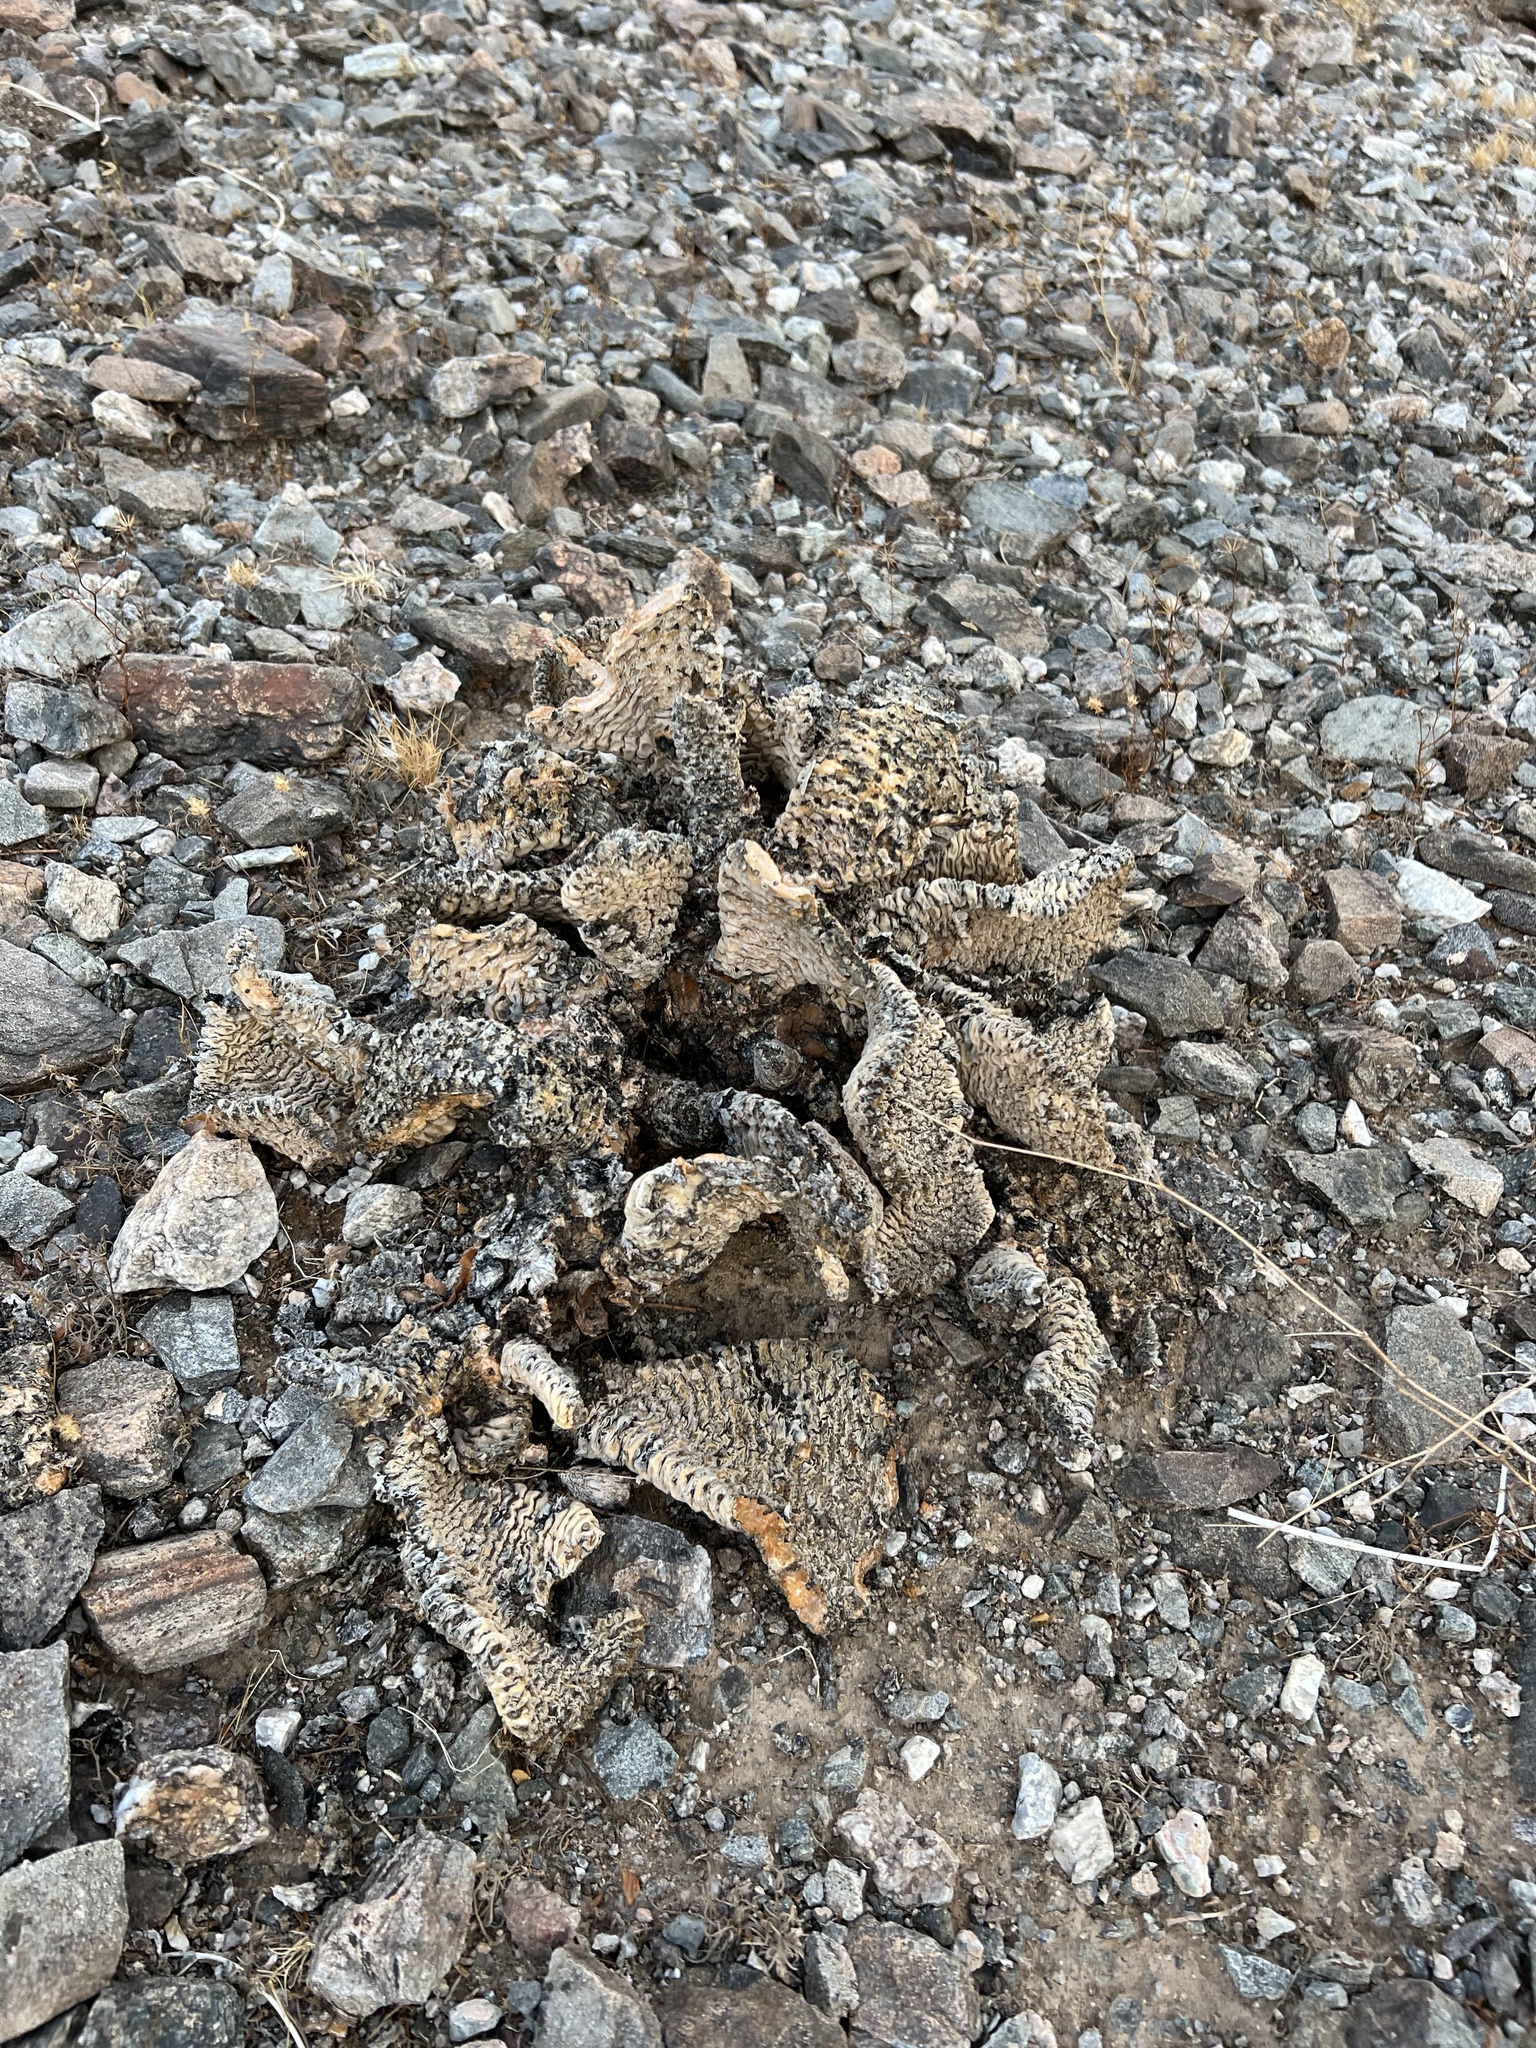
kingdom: Plantae
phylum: Tracheophyta
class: Magnoliopsida
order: Caryophyllales
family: Cactaceae
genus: Opuntia
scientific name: Opuntia basilaris
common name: Beavertail prickly-pear
